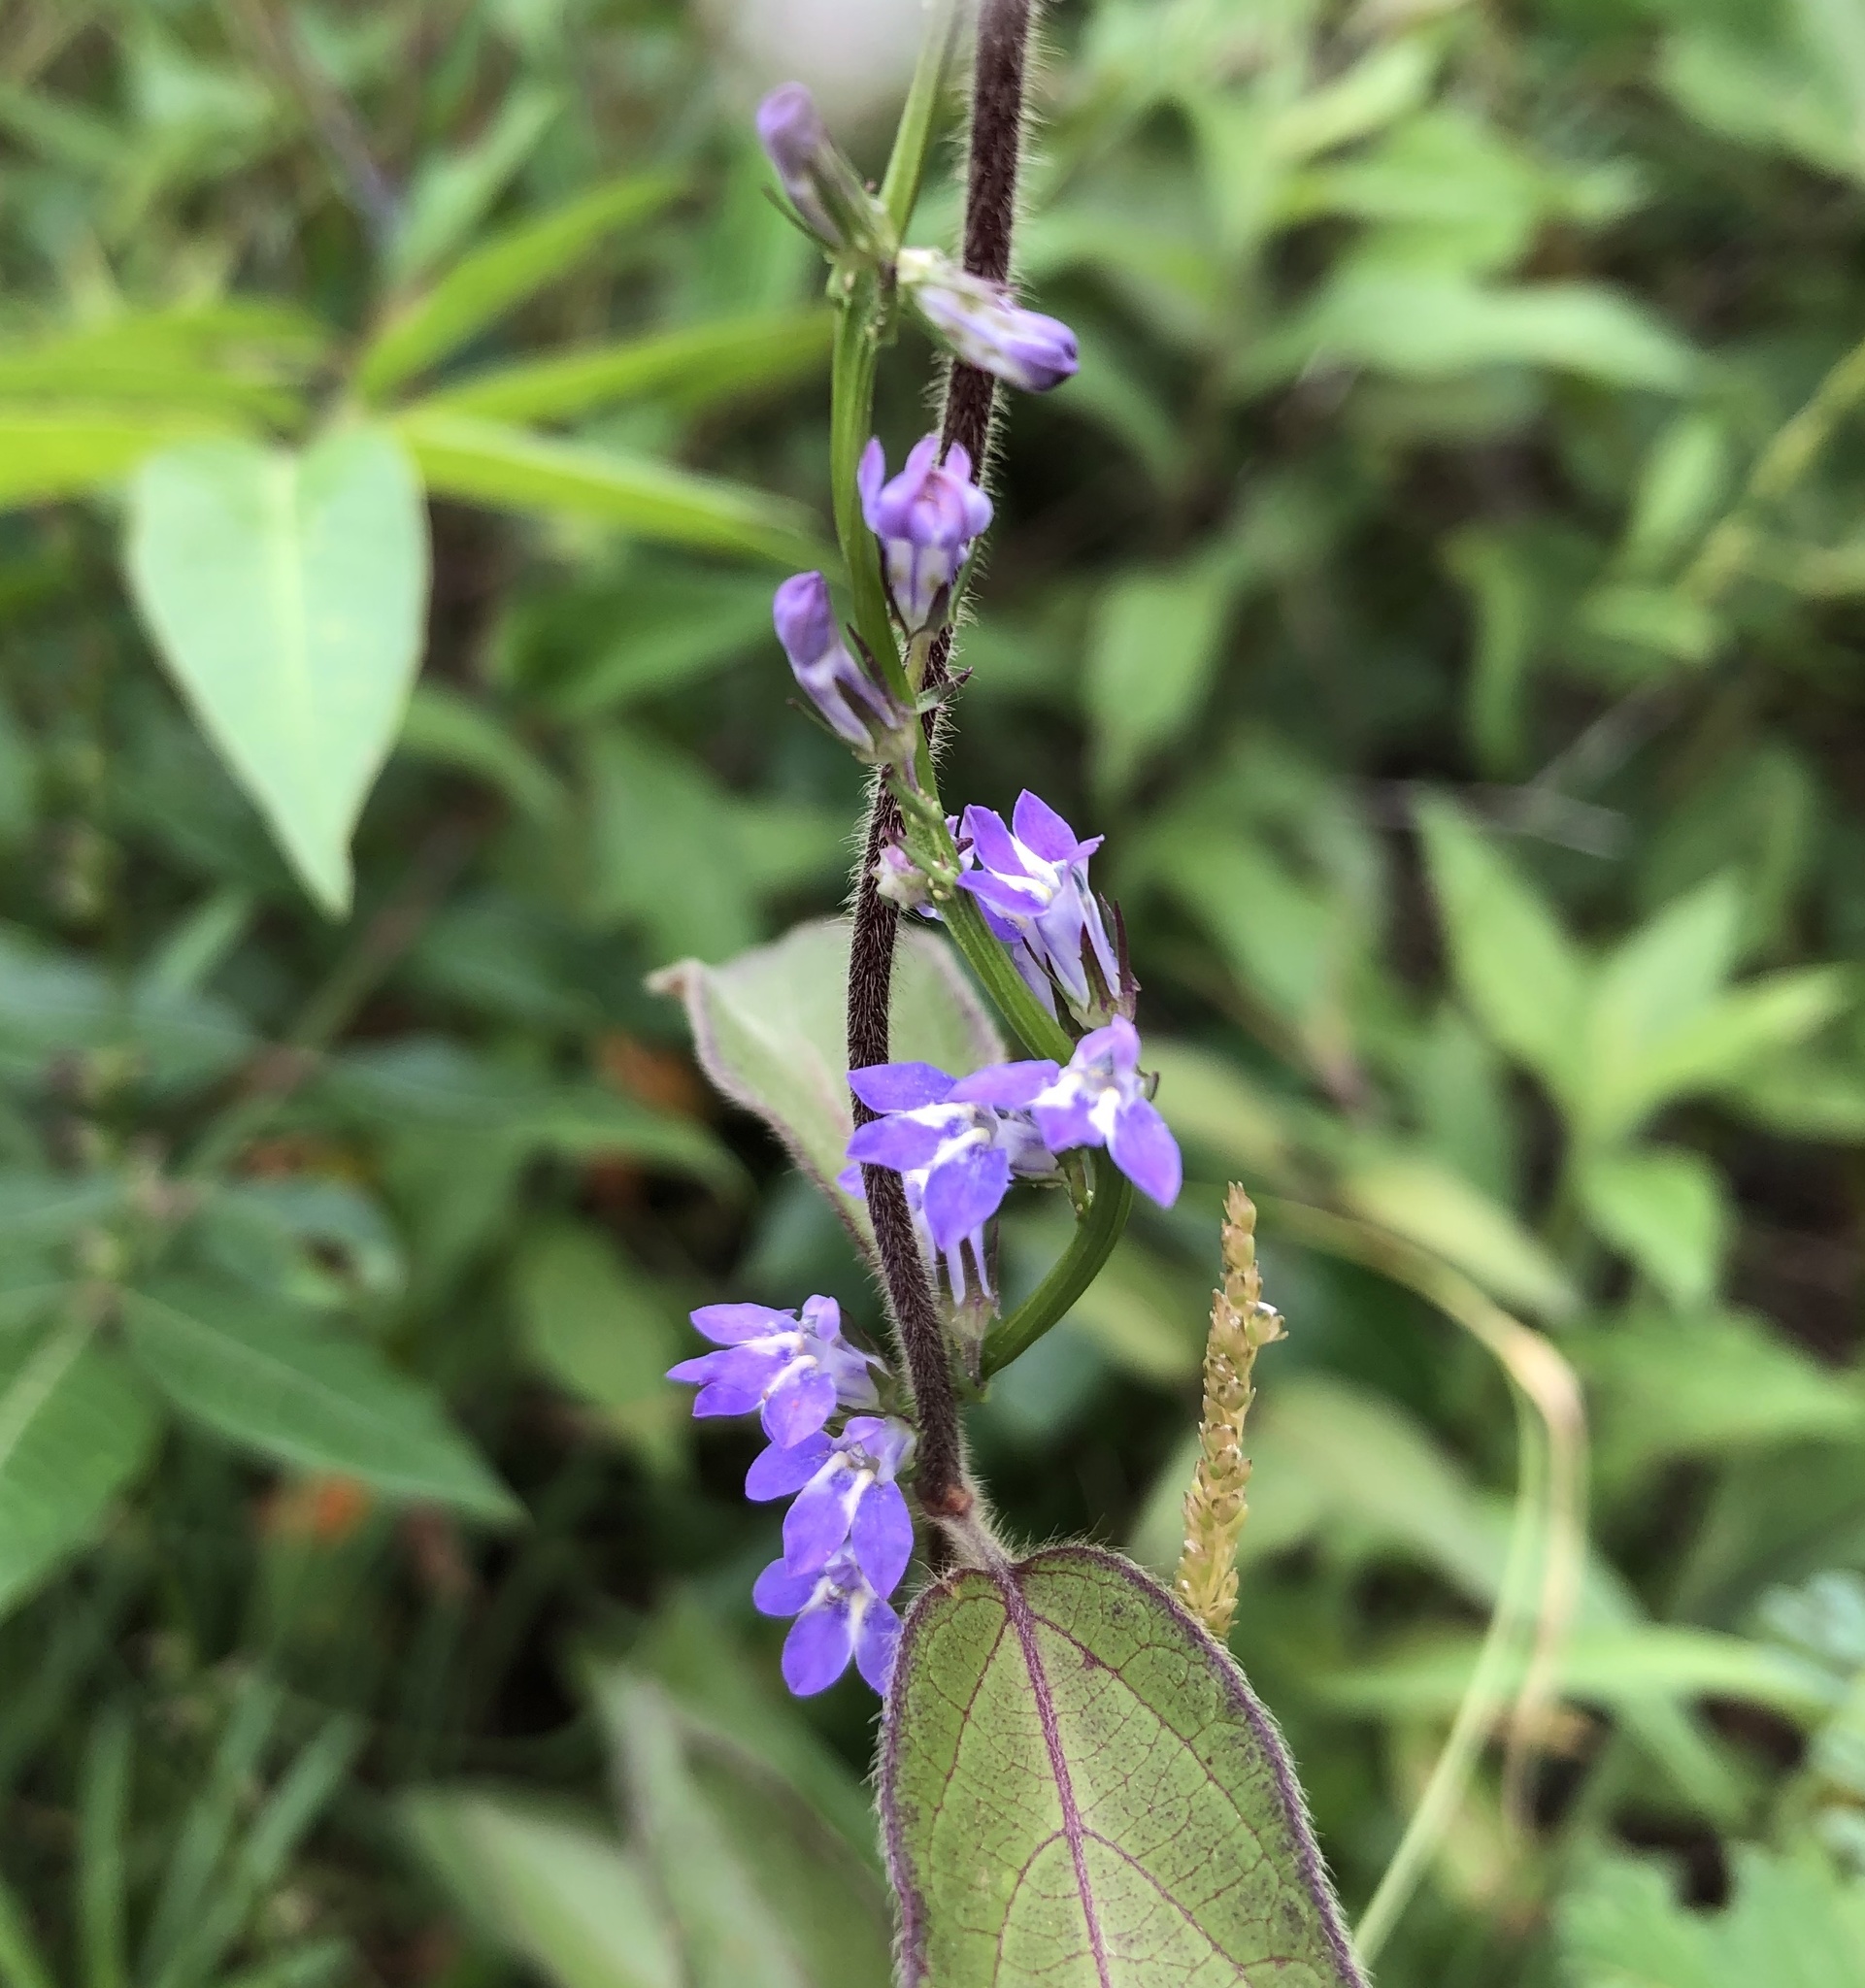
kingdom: Plantae
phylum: Tracheophyta
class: Magnoliopsida
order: Asterales
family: Campanulaceae
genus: Lobelia
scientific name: Lobelia puberula
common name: Purple dewdrop
